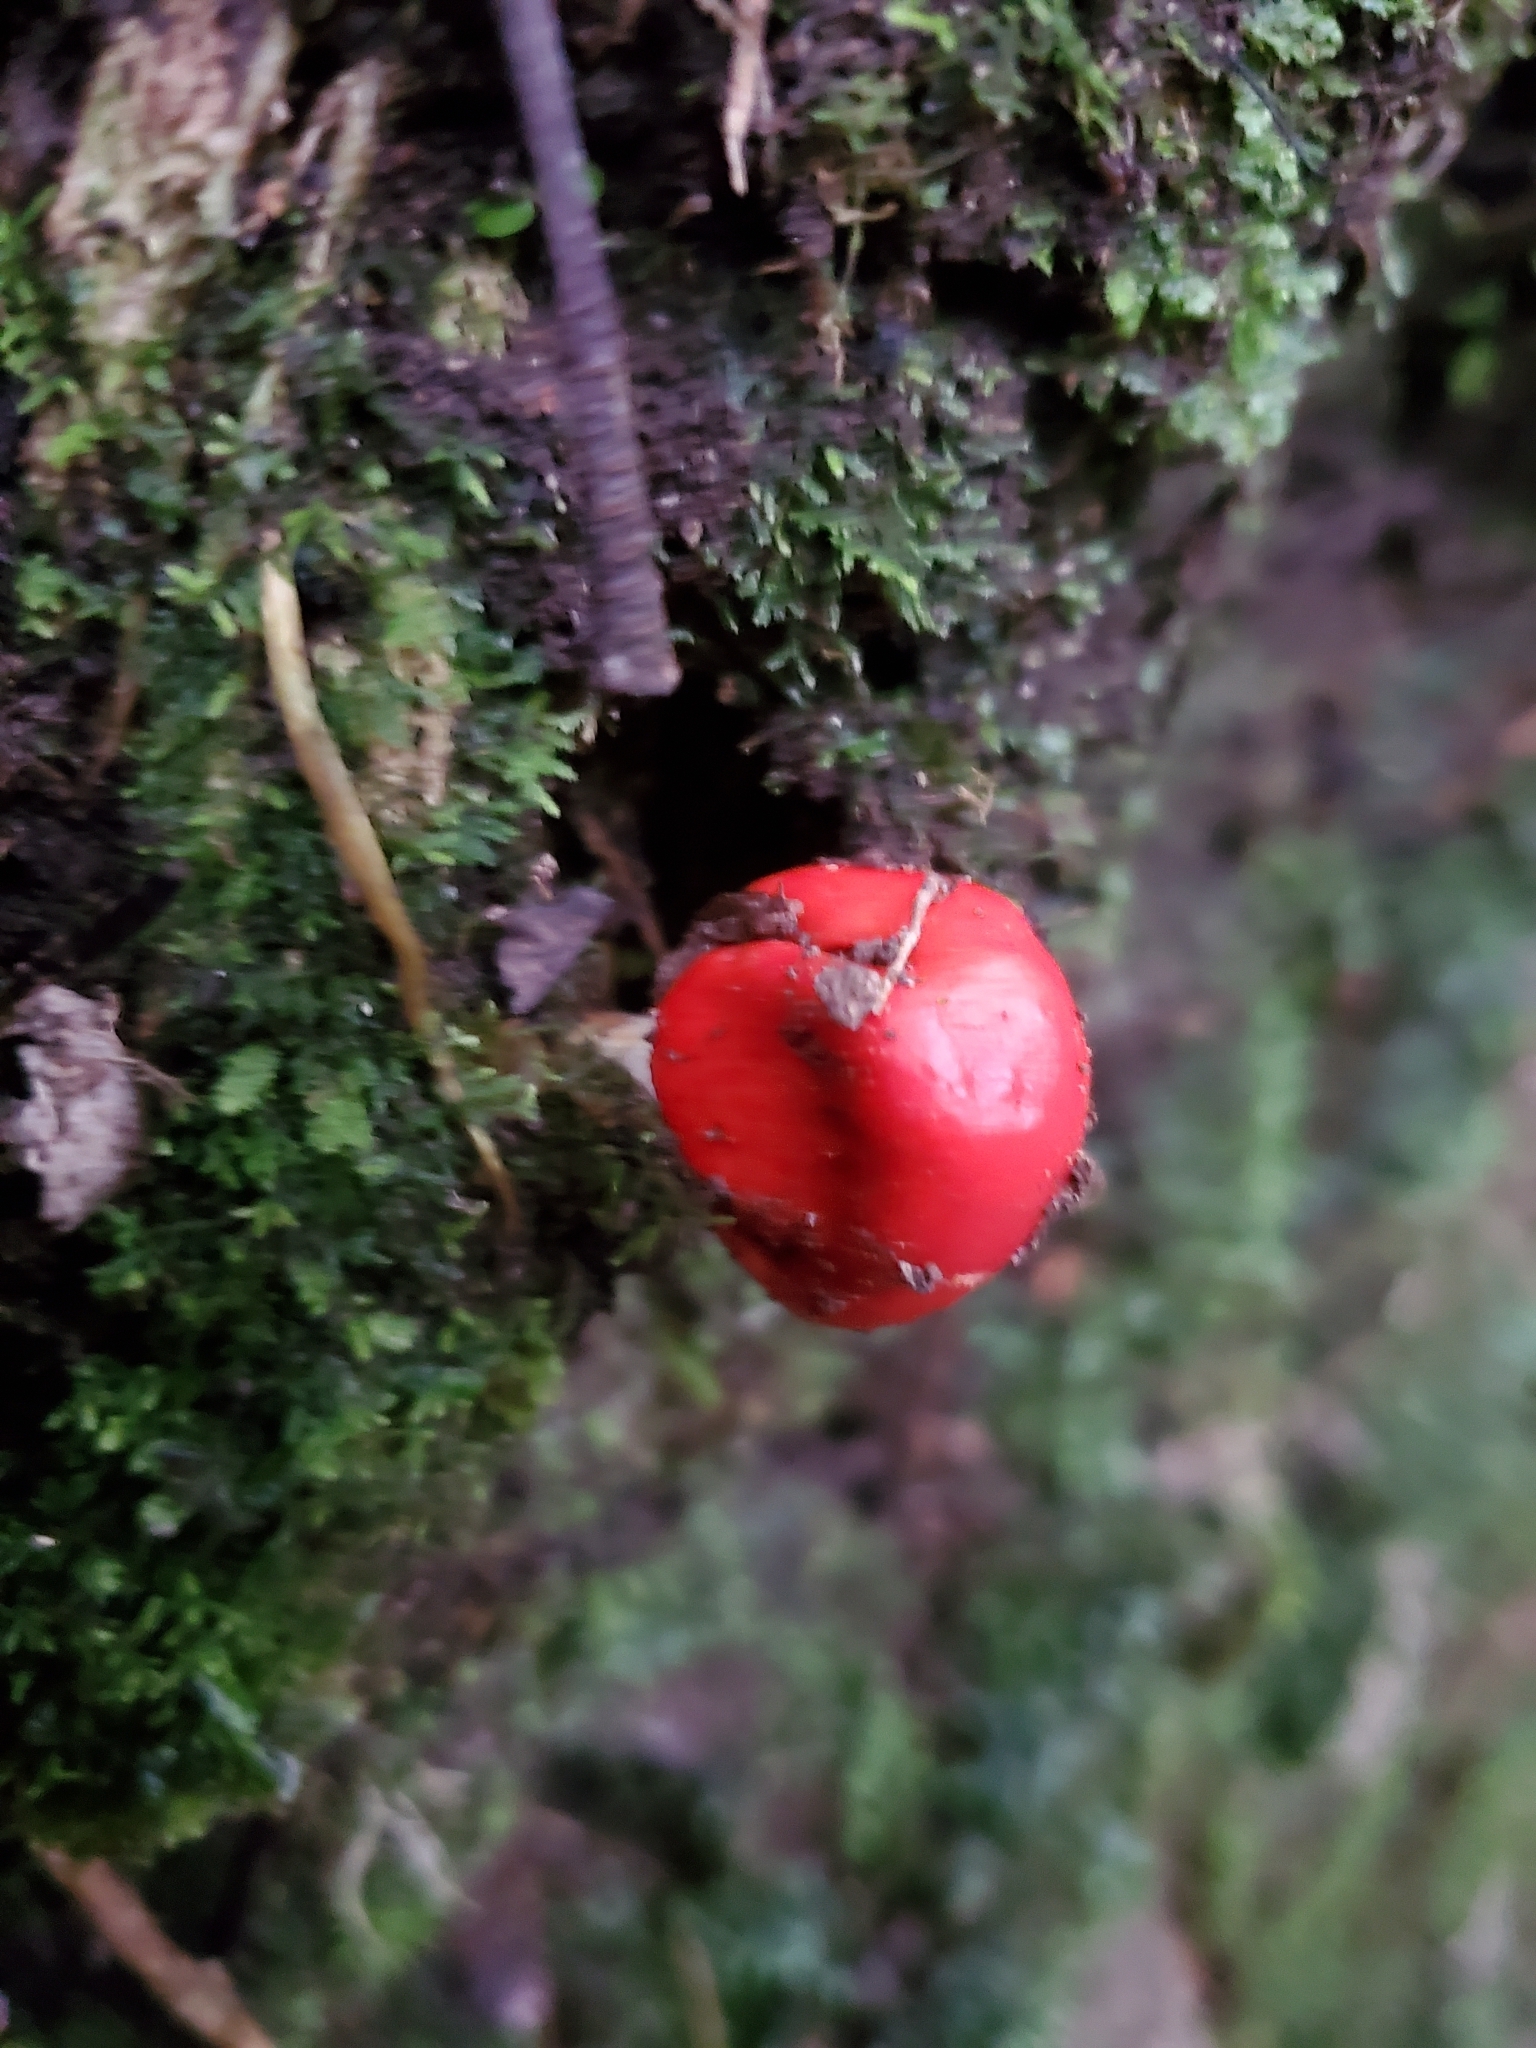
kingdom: Fungi
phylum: Basidiomycota
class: Agaricomycetes
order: Agaricales
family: Strophariaceae
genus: Leratiomyces
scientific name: Leratiomyces erythrocephalus
